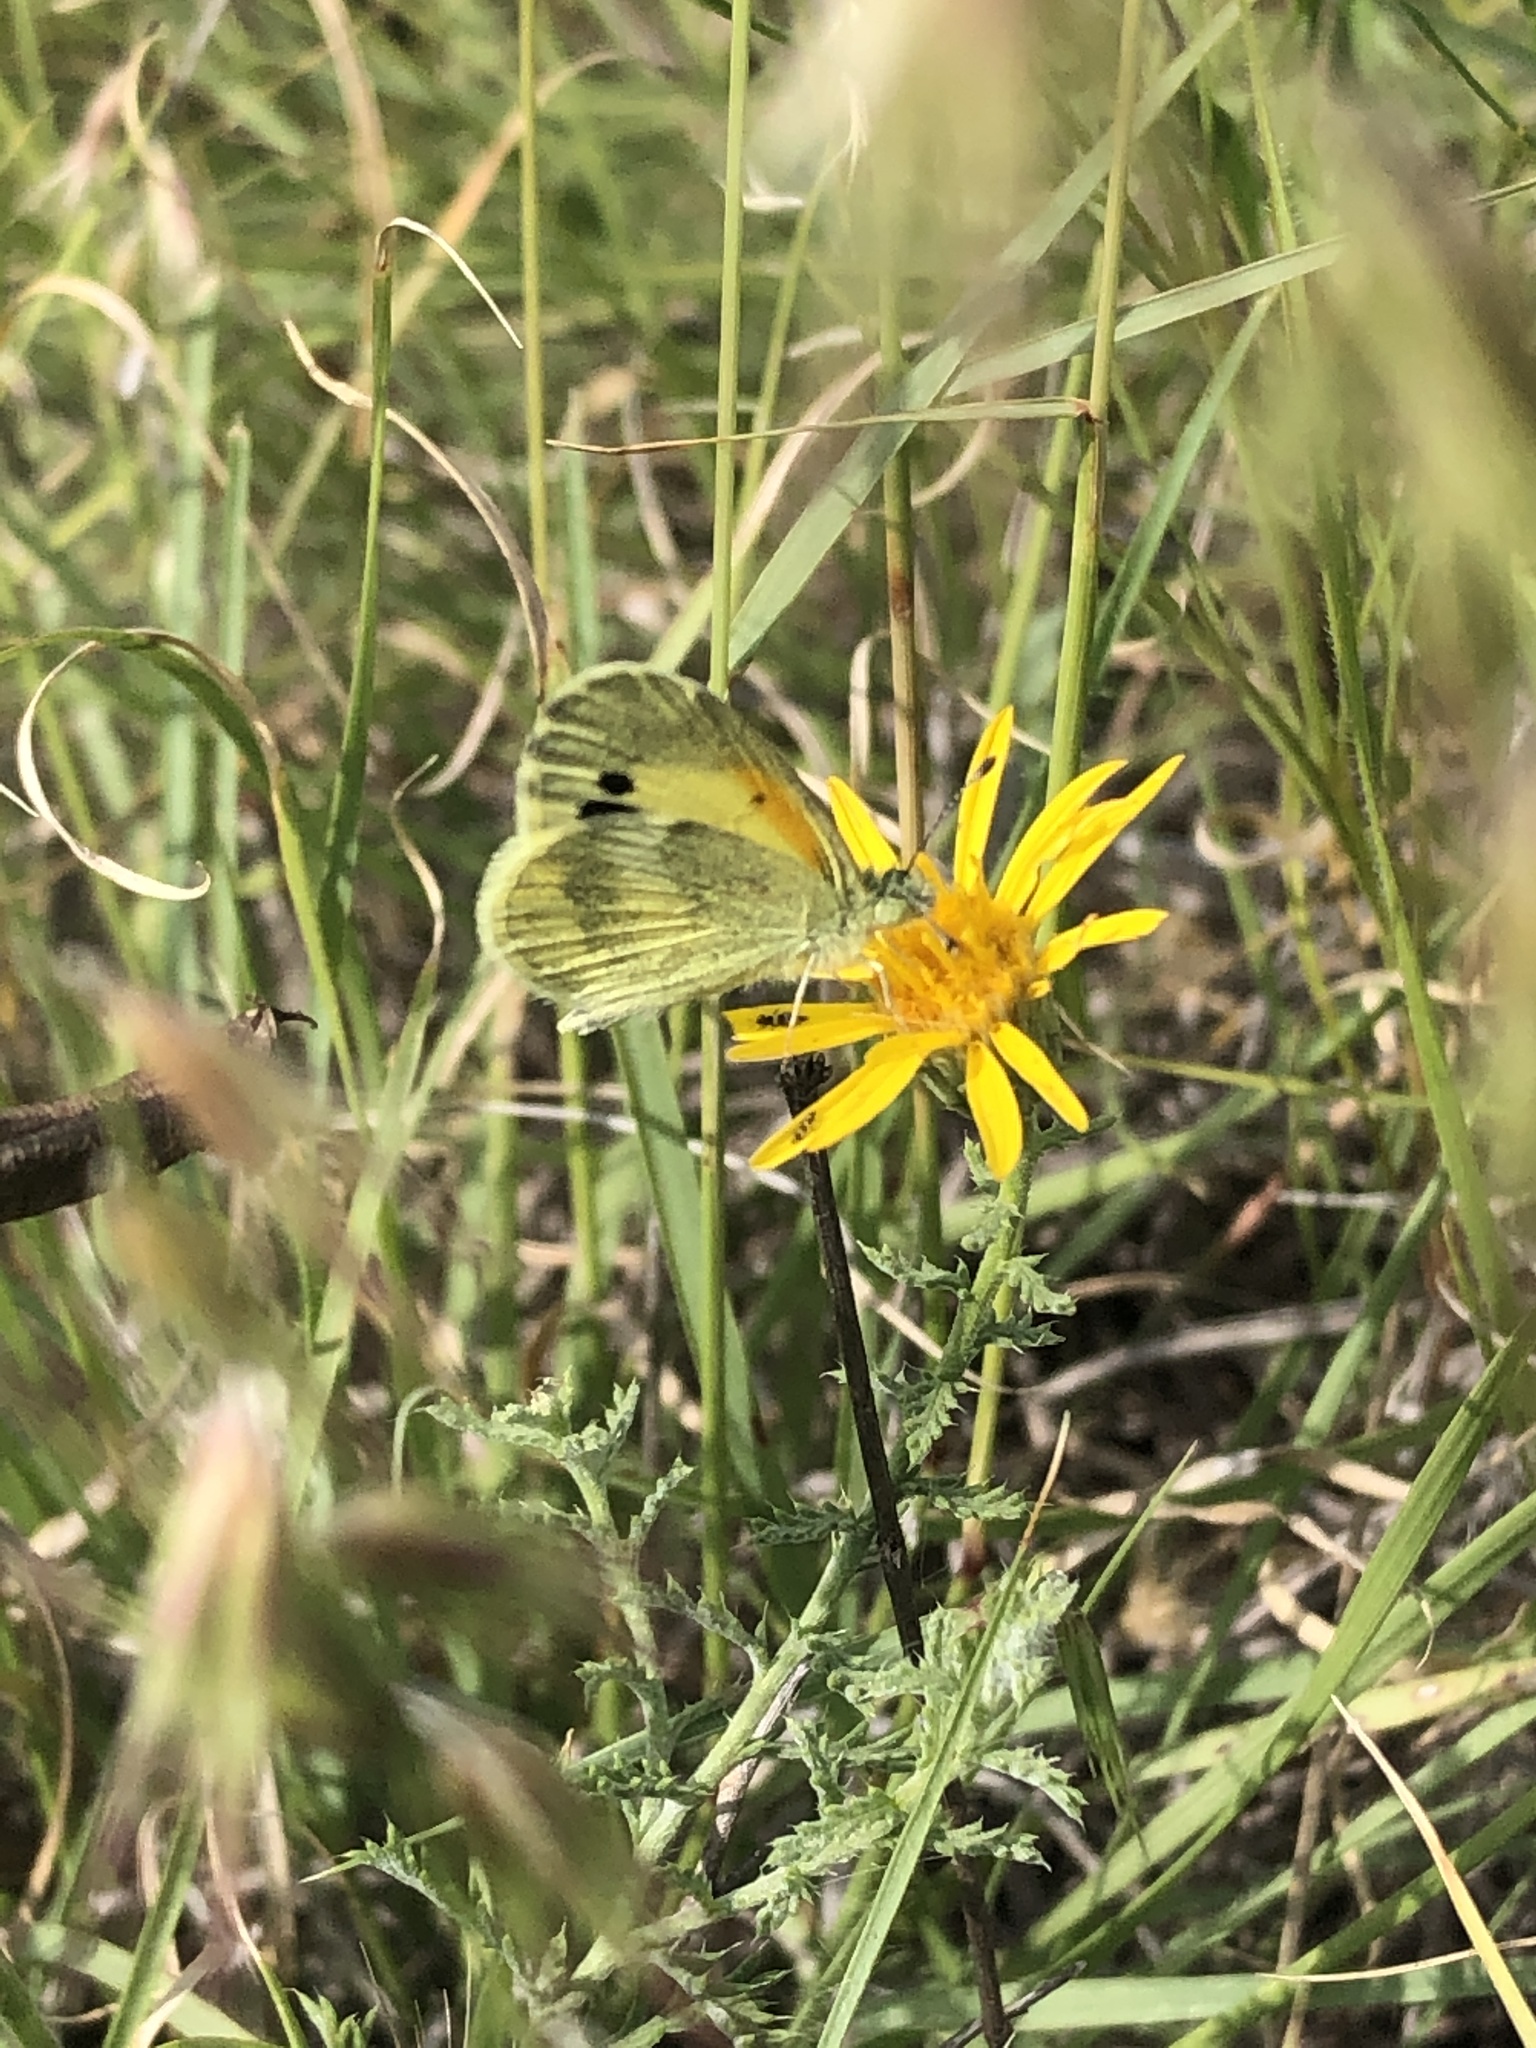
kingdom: Animalia
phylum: Arthropoda
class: Insecta
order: Lepidoptera
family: Pieridae
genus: Nathalis
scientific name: Nathalis iole
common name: Dainty sulphur
